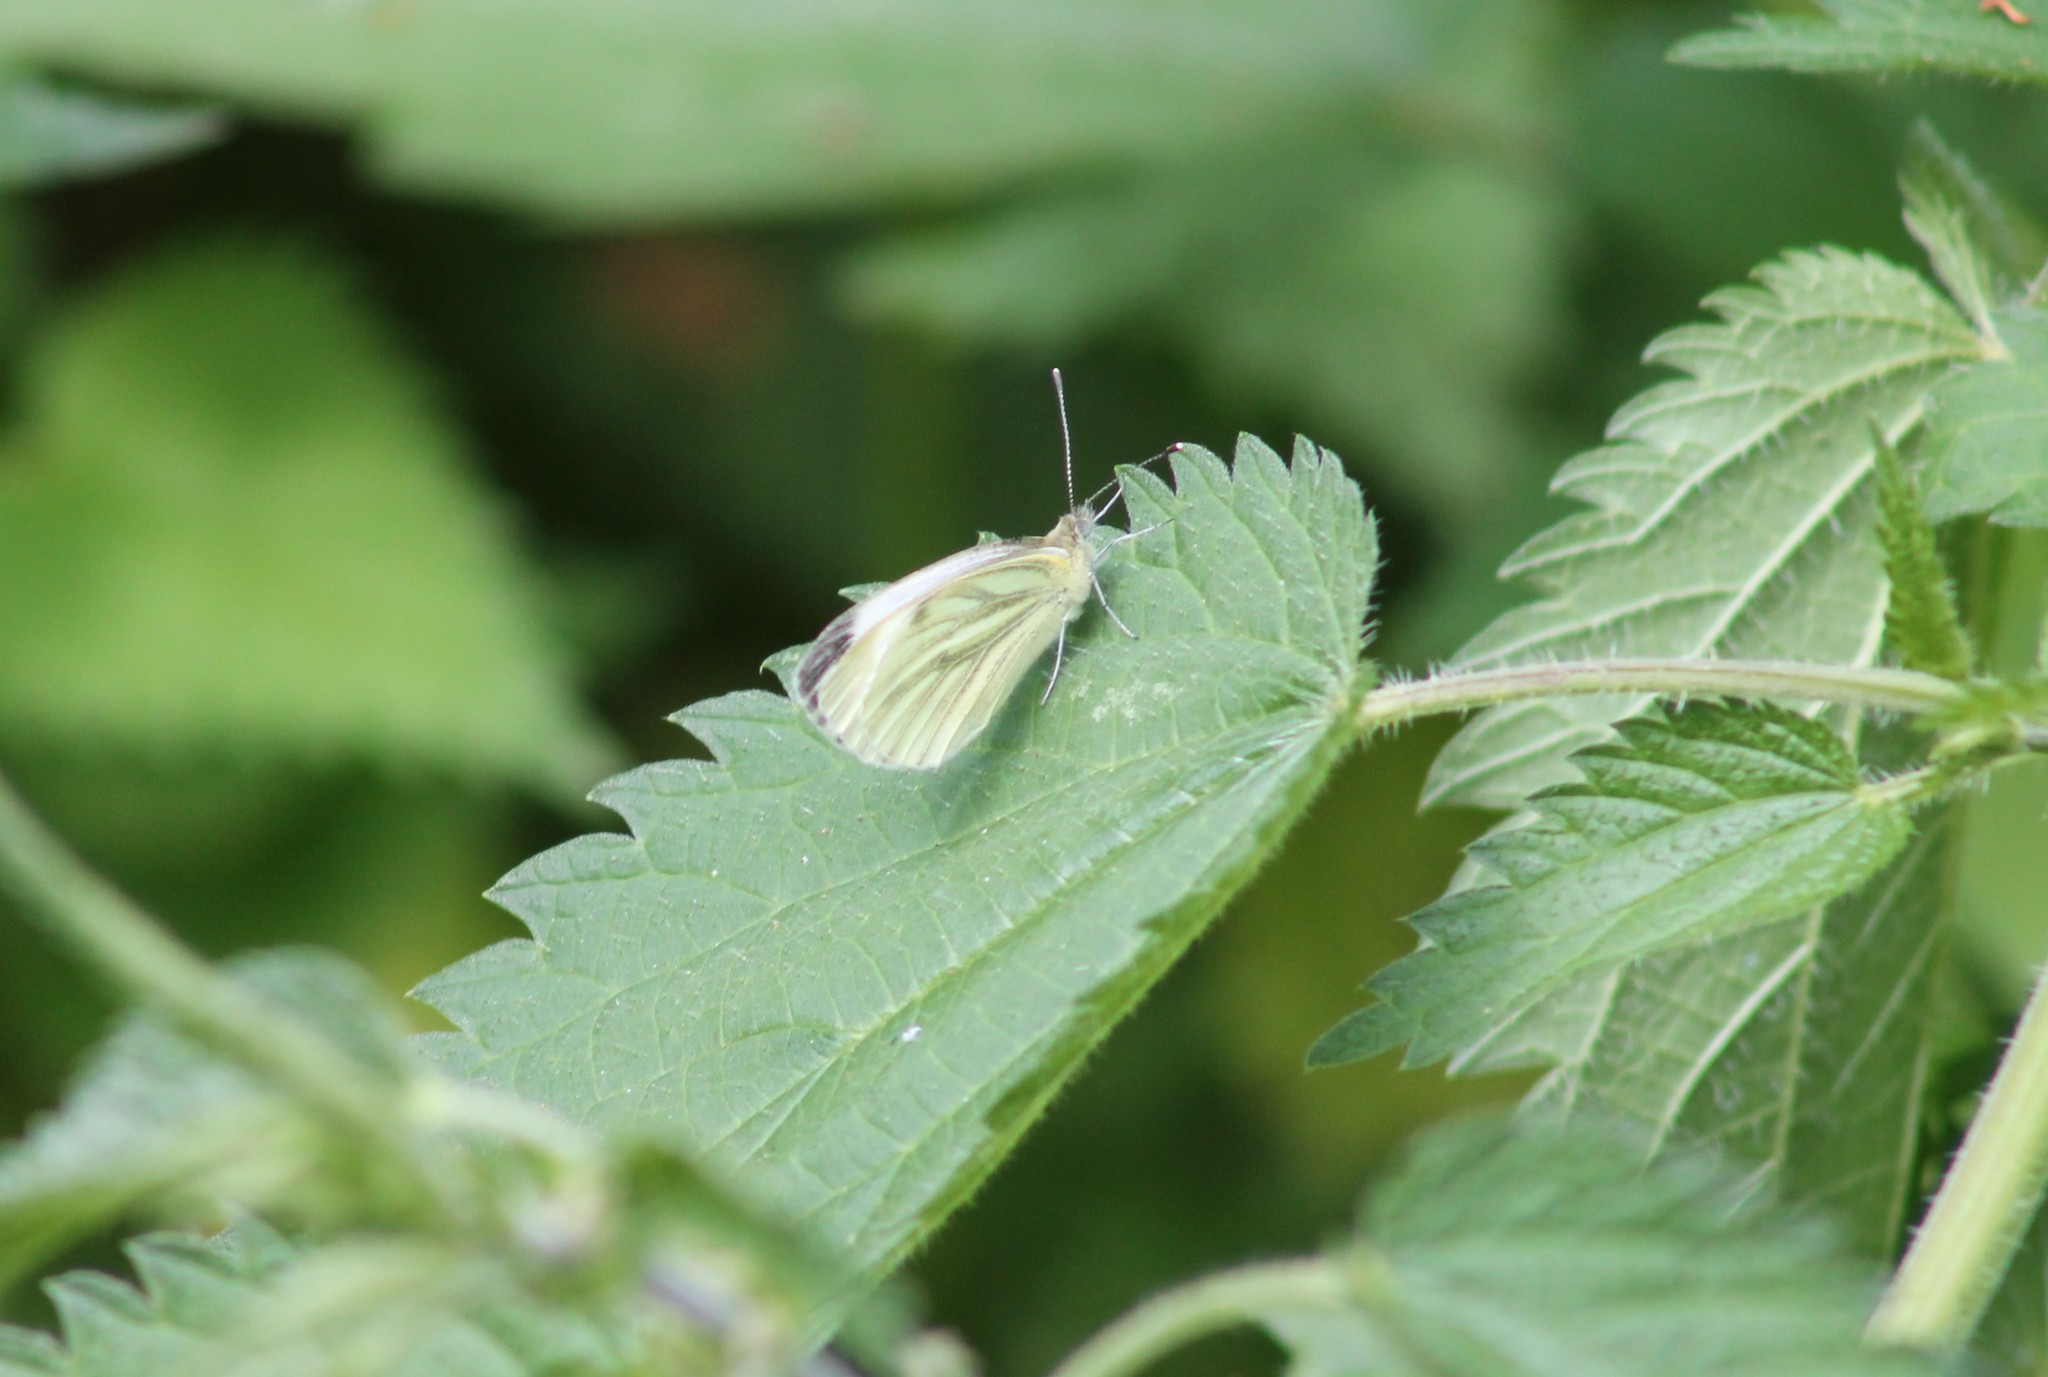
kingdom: Animalia
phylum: Arthropoda
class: Insecta
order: Lepidoptera
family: Pieridae
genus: Pieris
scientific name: Pieris napi
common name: Green-veined white
